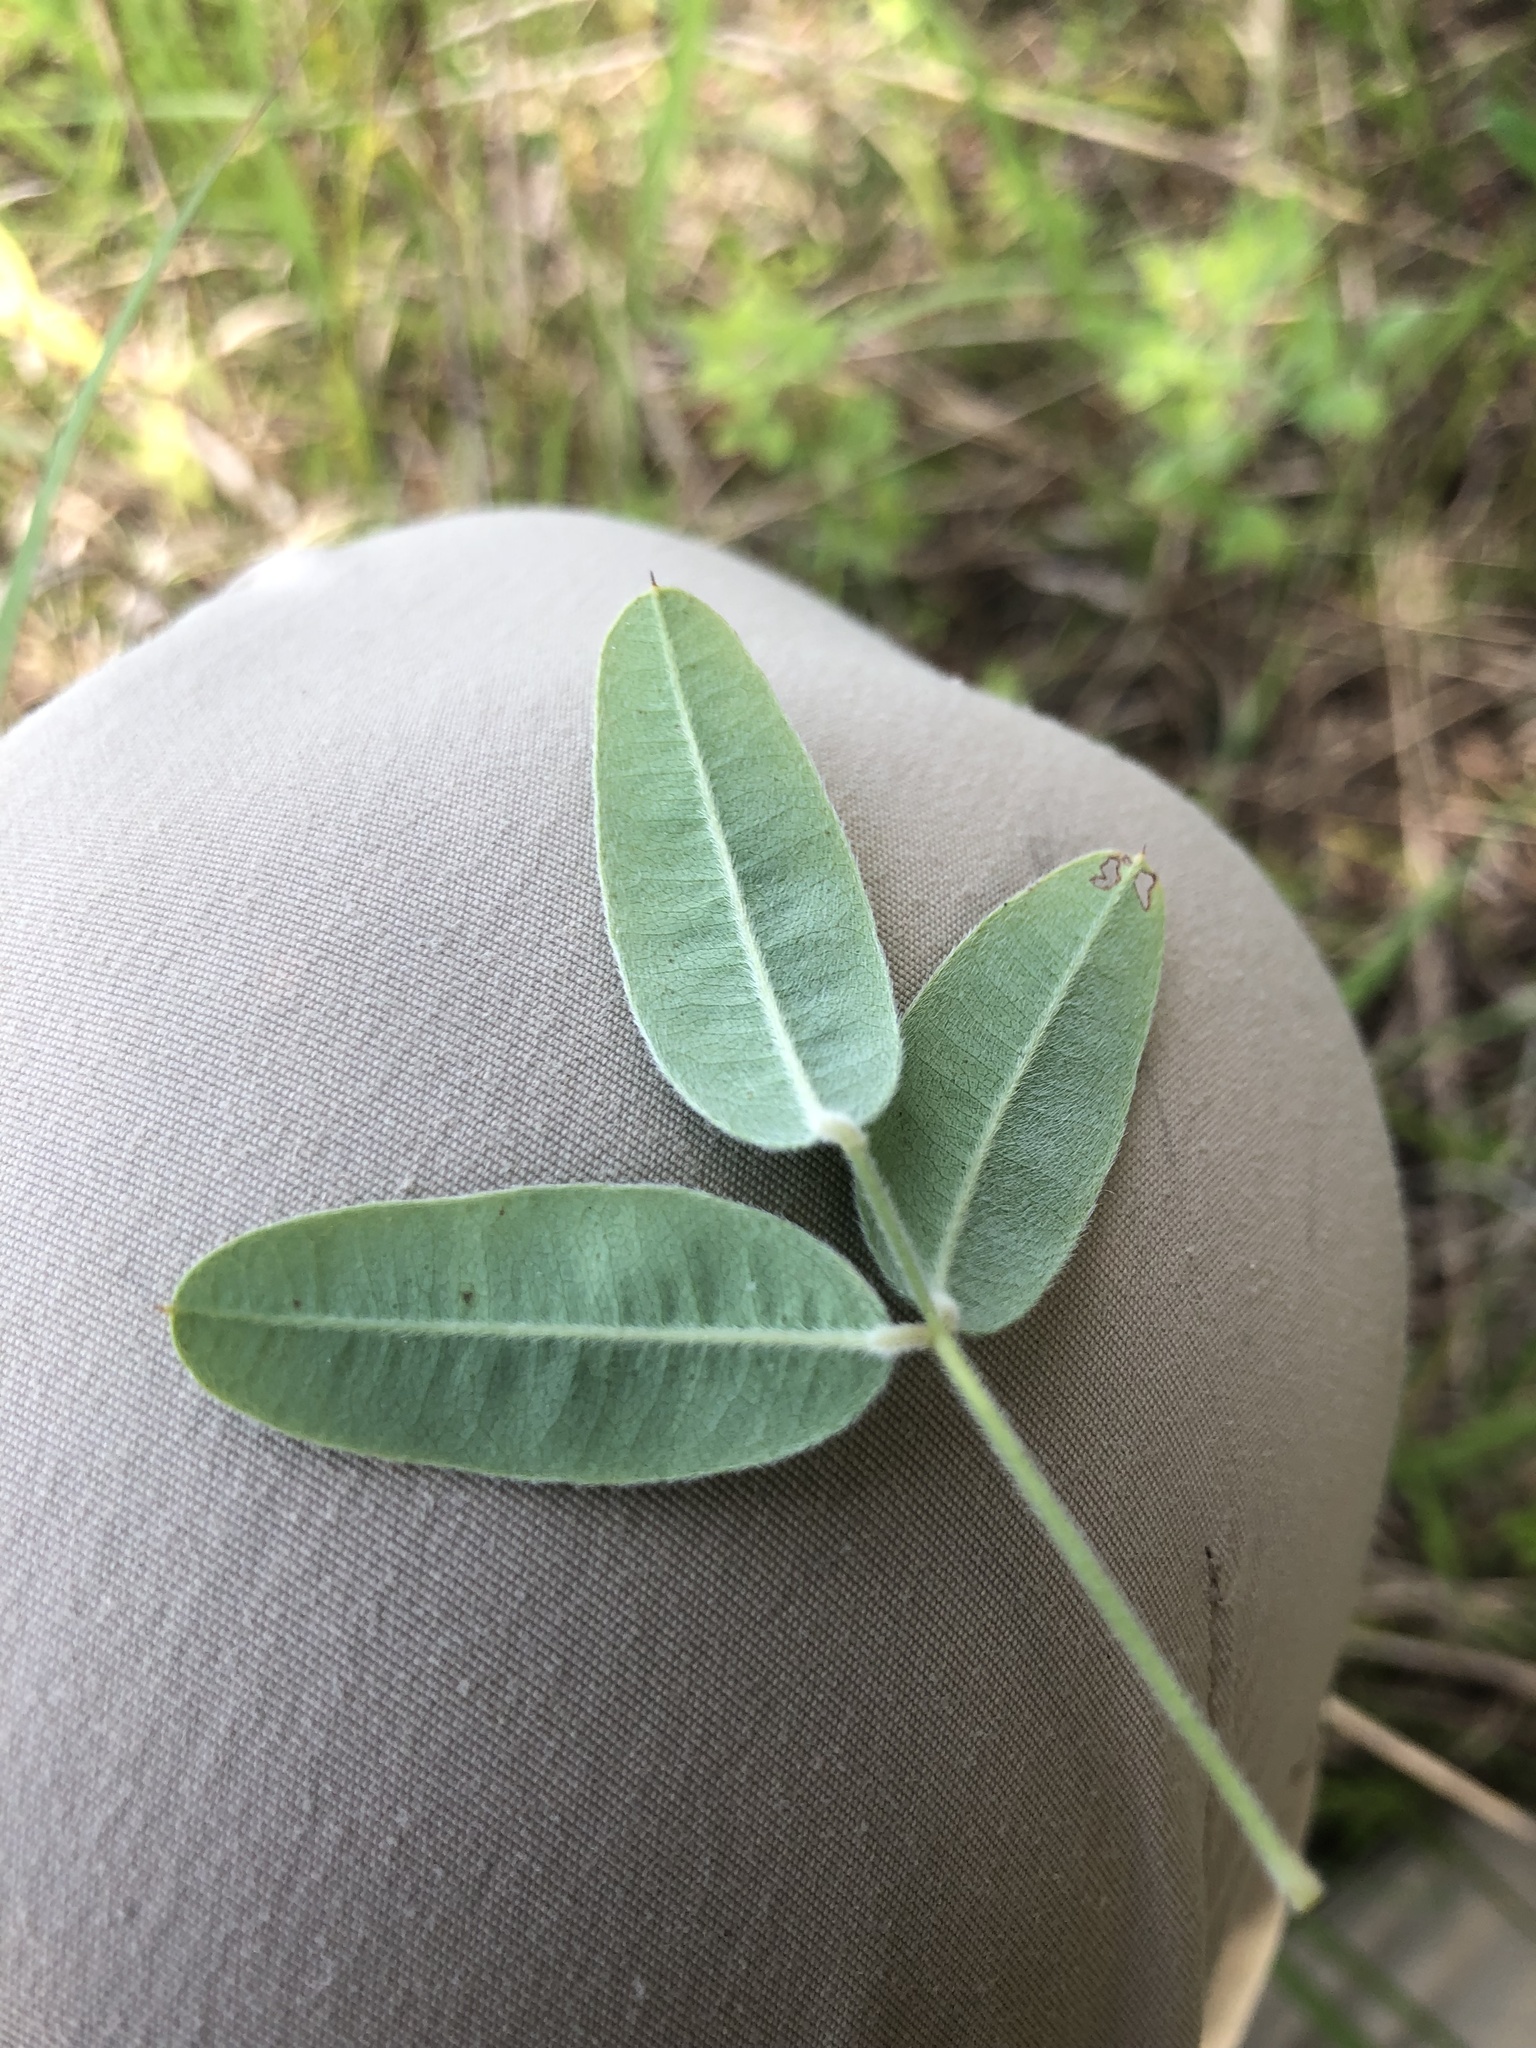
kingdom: Plantae
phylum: Tracheophyta
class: Magnoliopsida
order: Fabales
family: Fabaceae
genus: Lespedeza
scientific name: Lespedeza stuevei
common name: Tall bush-clover
